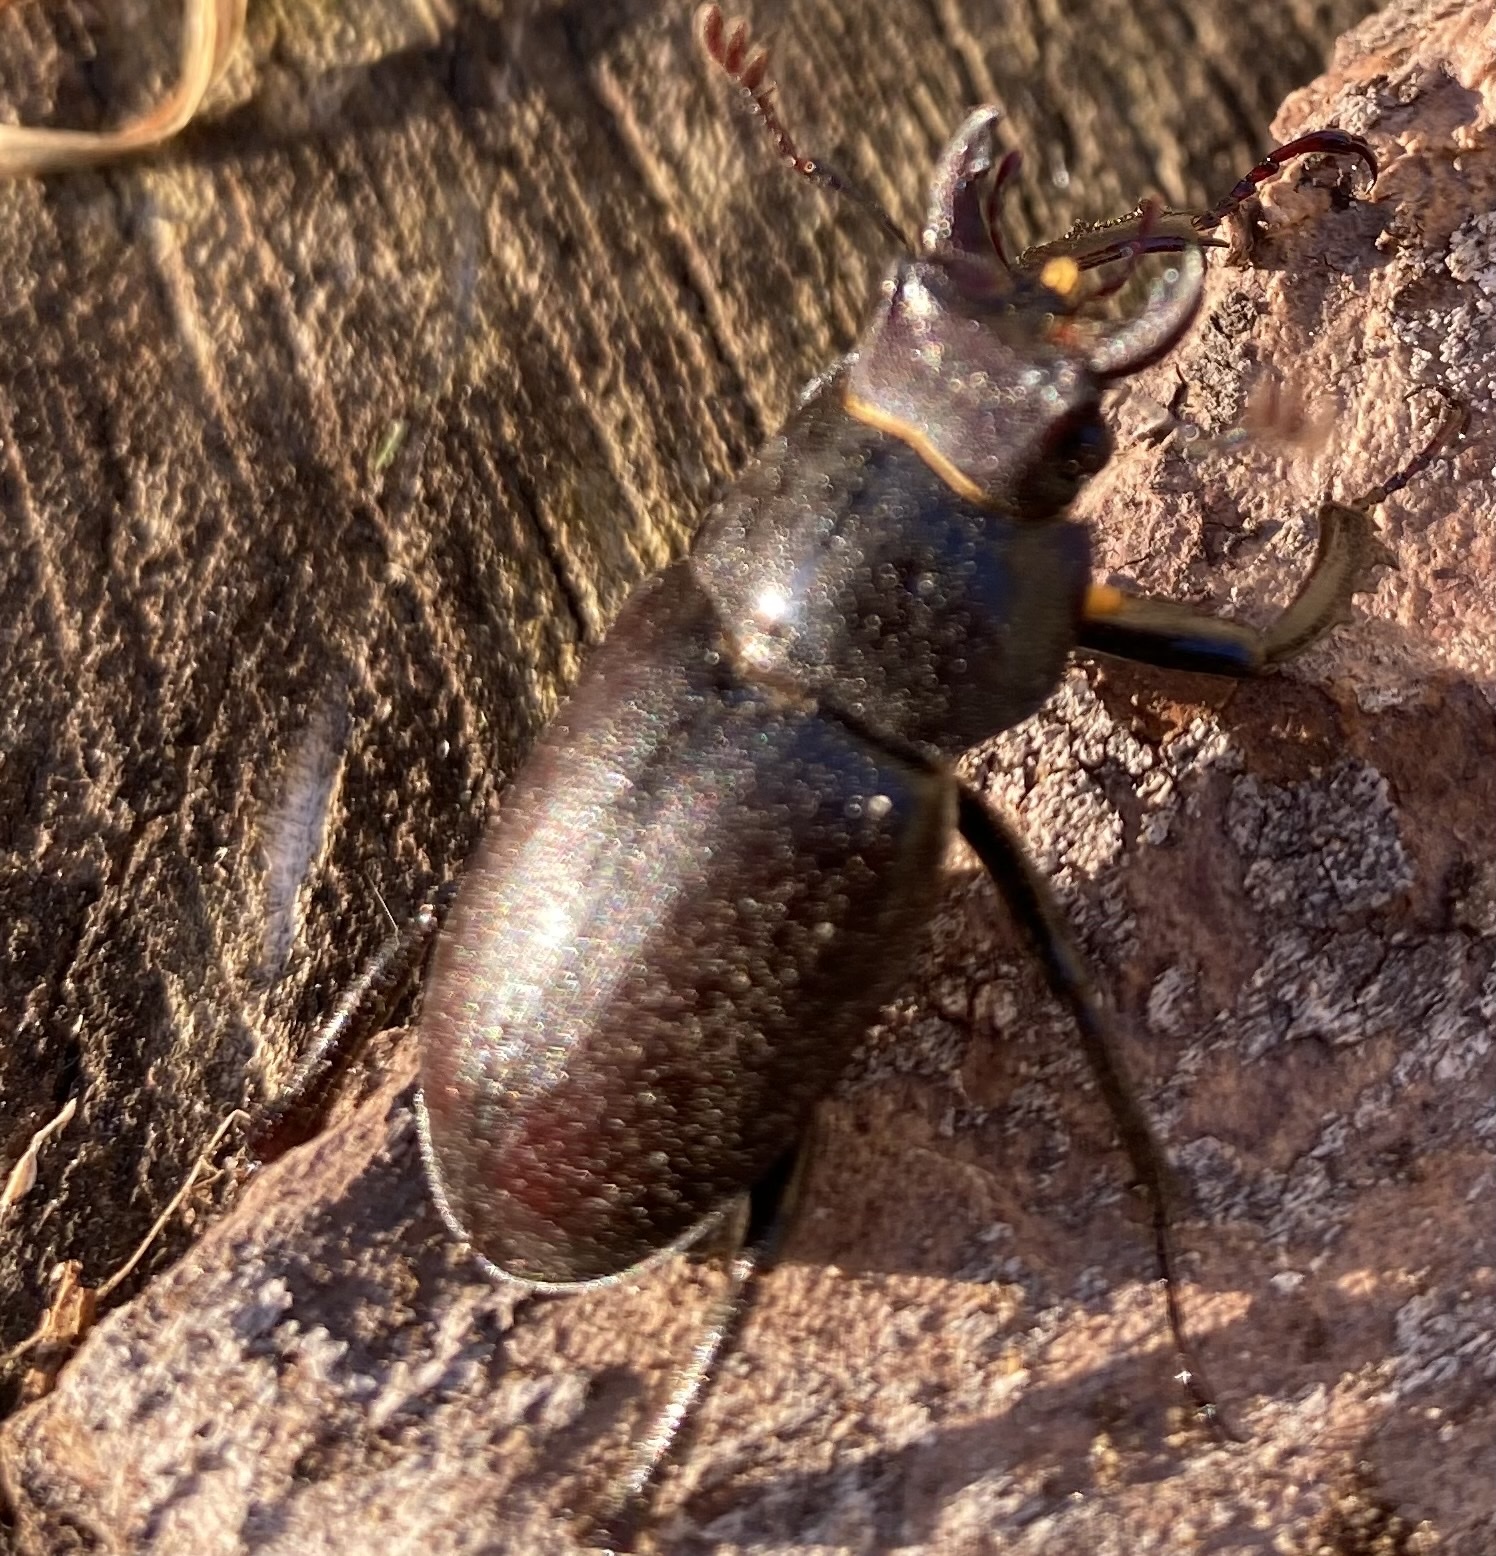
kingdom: Animalia
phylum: Arthropoda
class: Insecta
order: Coleoptera
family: Lucanidae
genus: Lucanus
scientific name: Lucanus placidus
